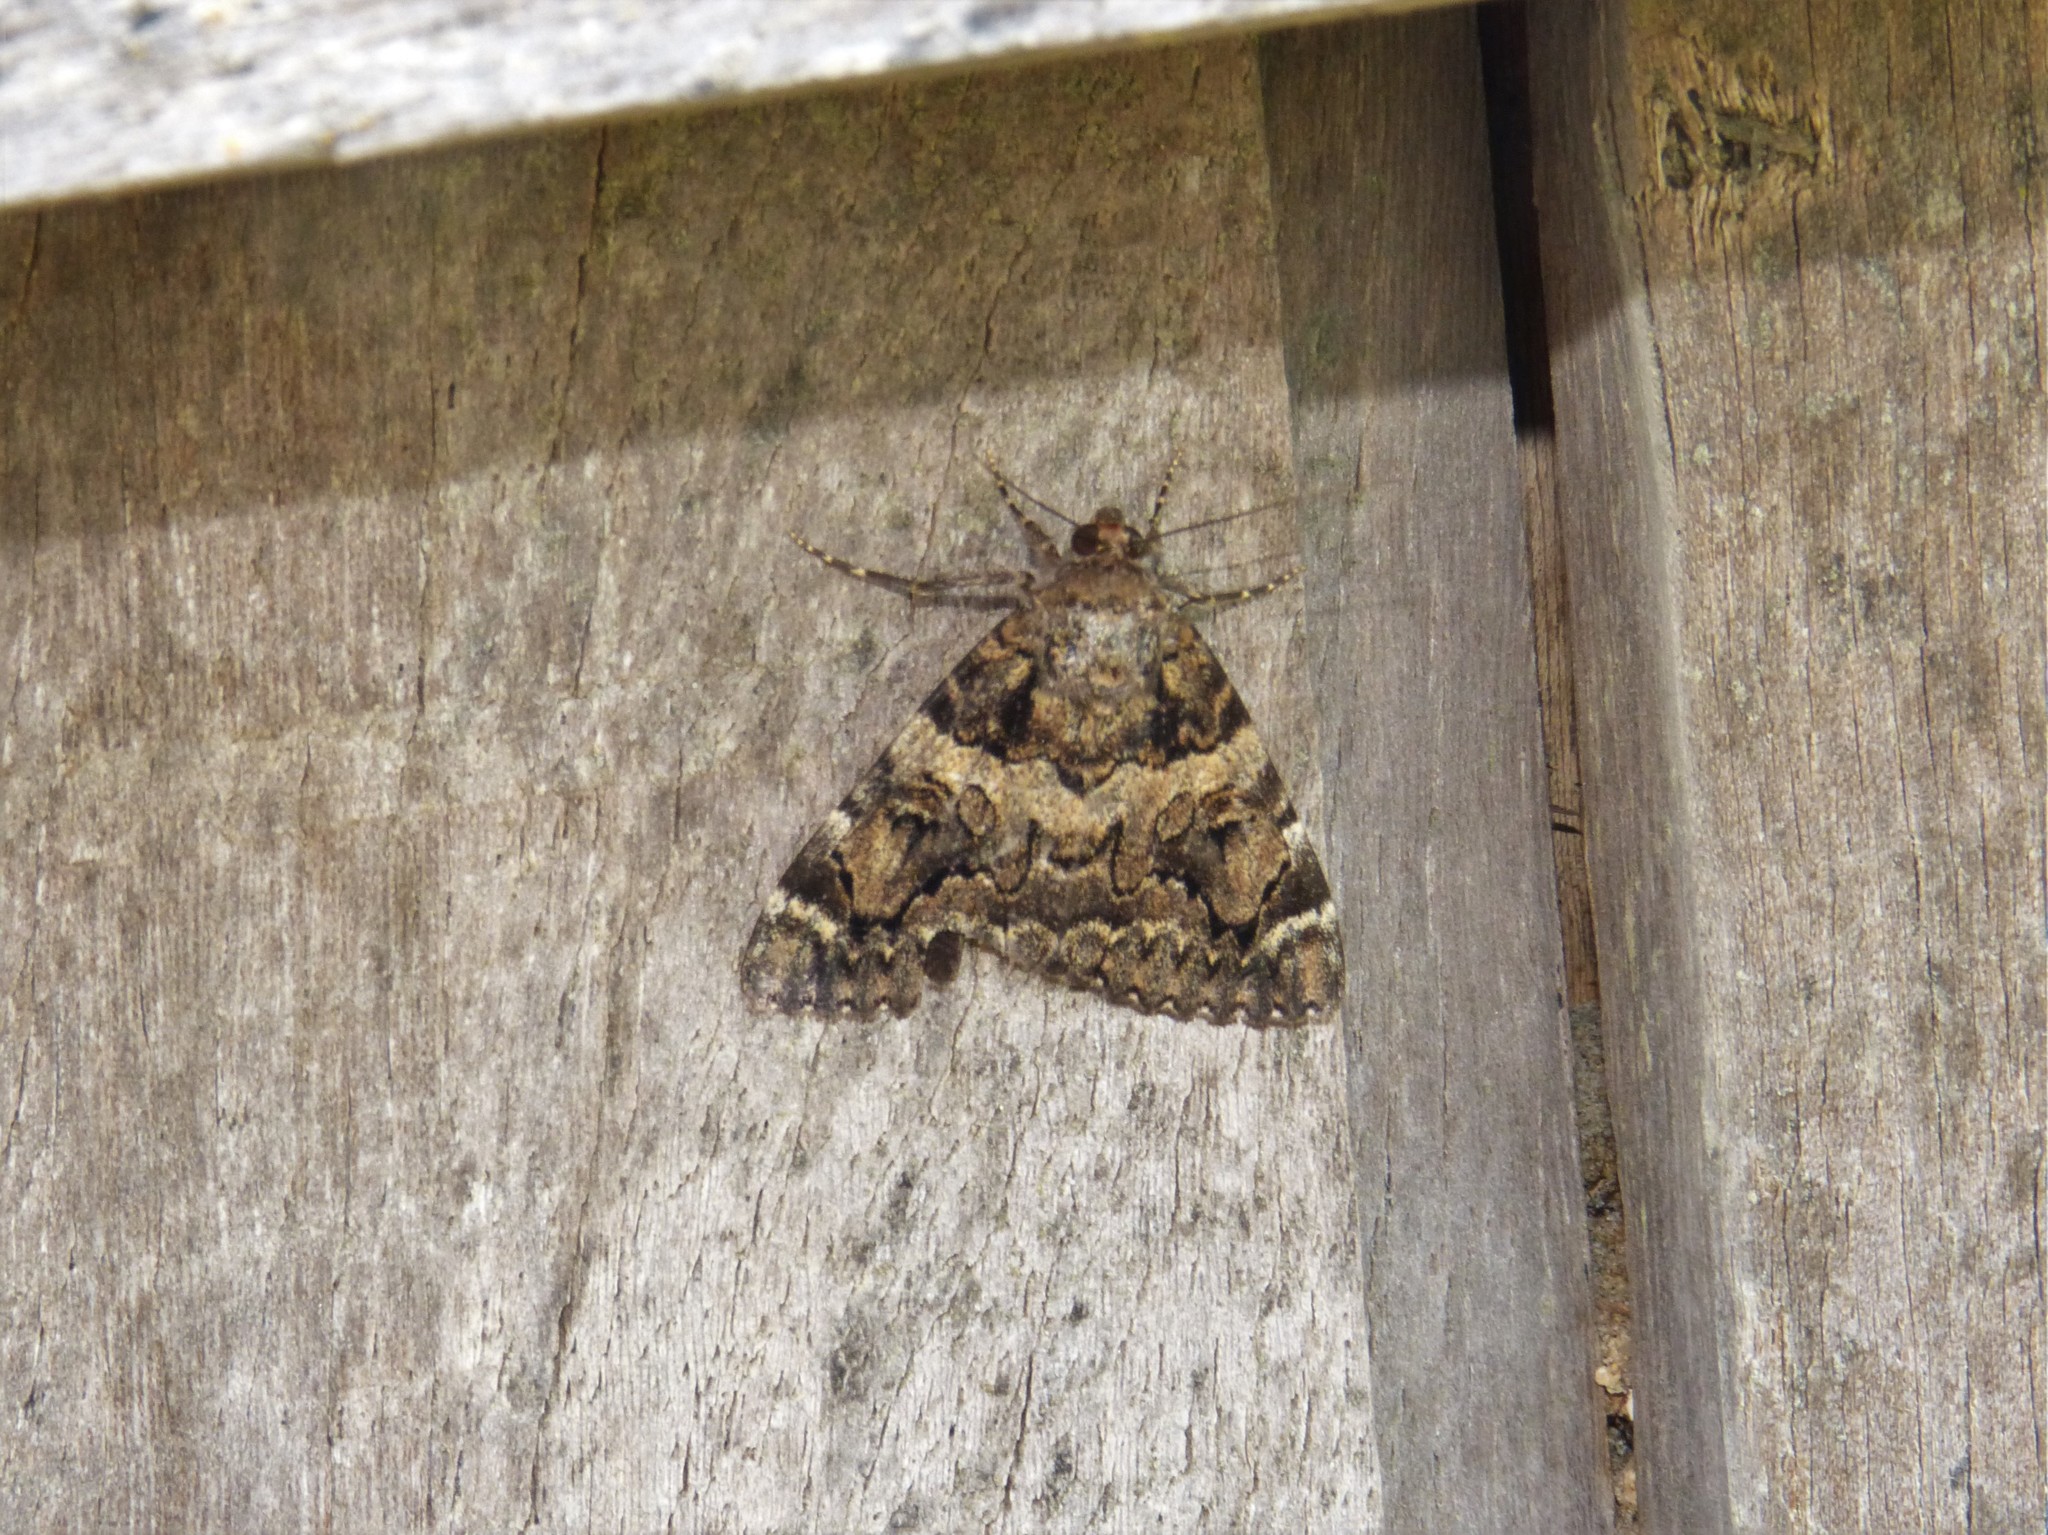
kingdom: Animalia
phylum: Arthropoda
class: Insecta
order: Lepidoptera
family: Erebidae
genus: Catocala
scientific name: Catocala coniuncta
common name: Minsmere crimson underwing
